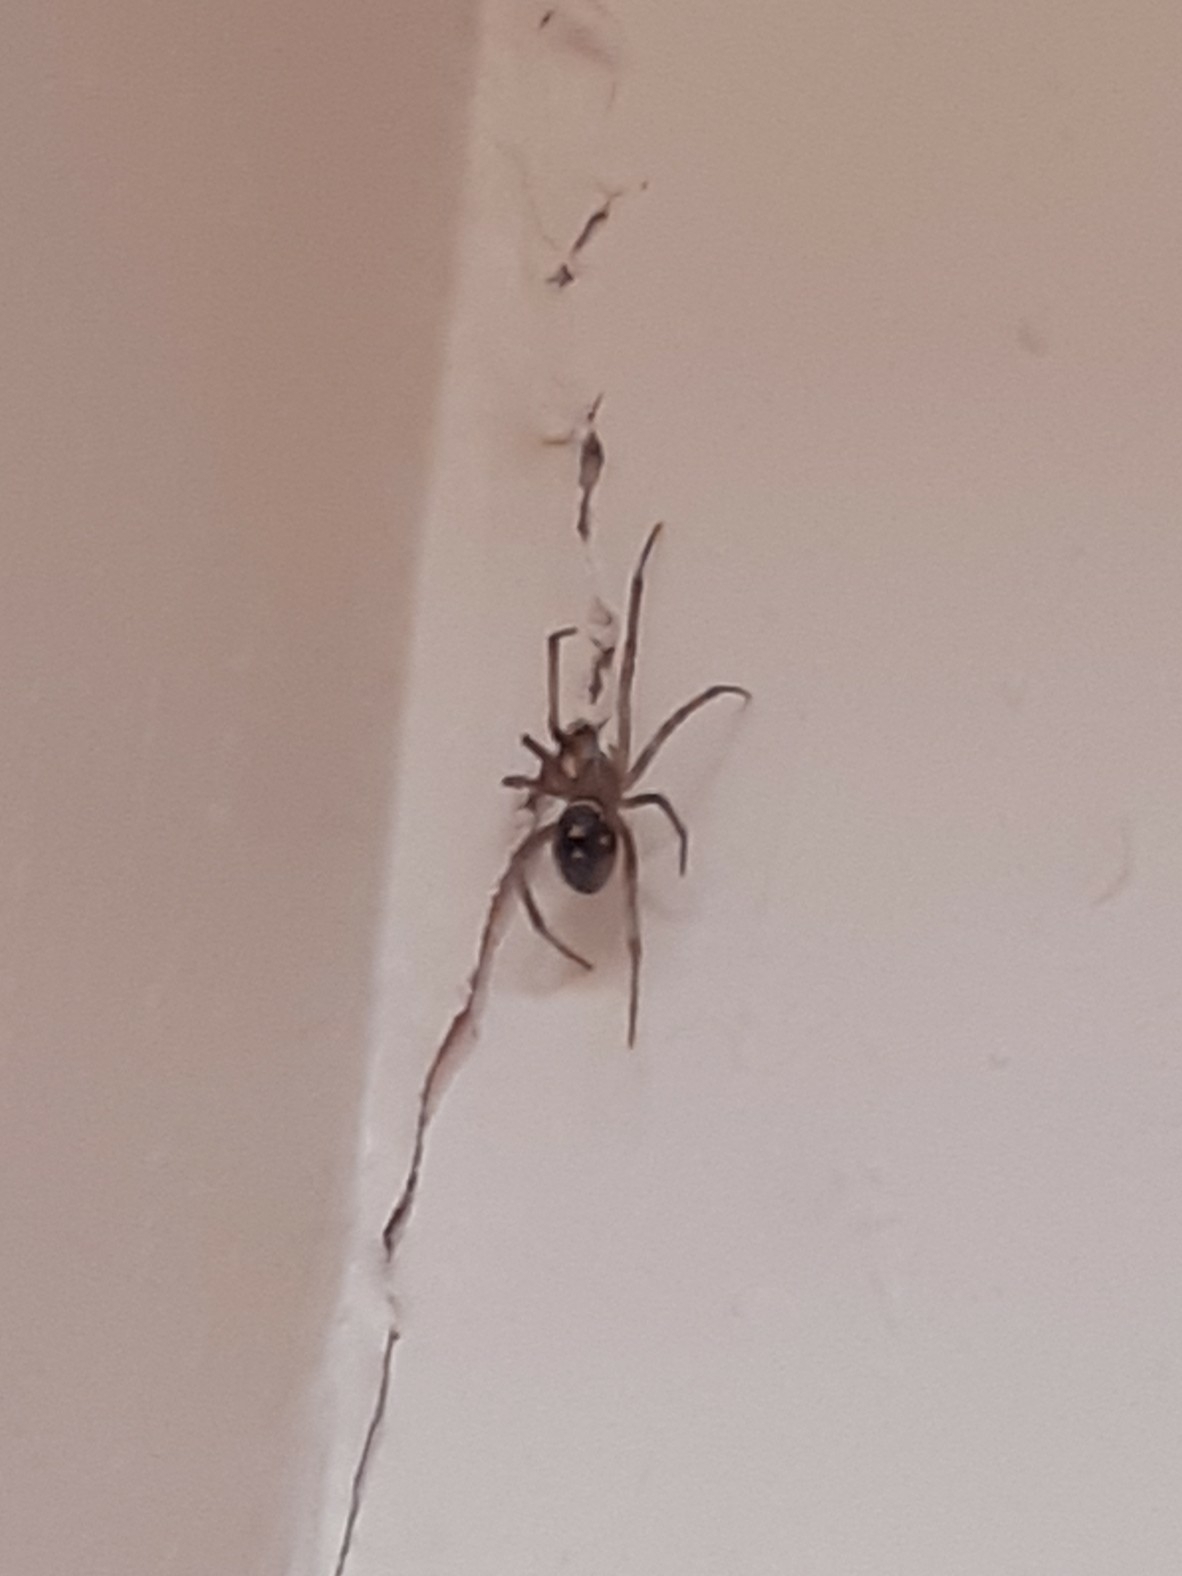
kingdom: Animalia
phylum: Arthropoda
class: Arachnida
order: Araneae
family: Theridiidae
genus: Steatoda
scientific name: Steatoda grossa
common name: False black widow
